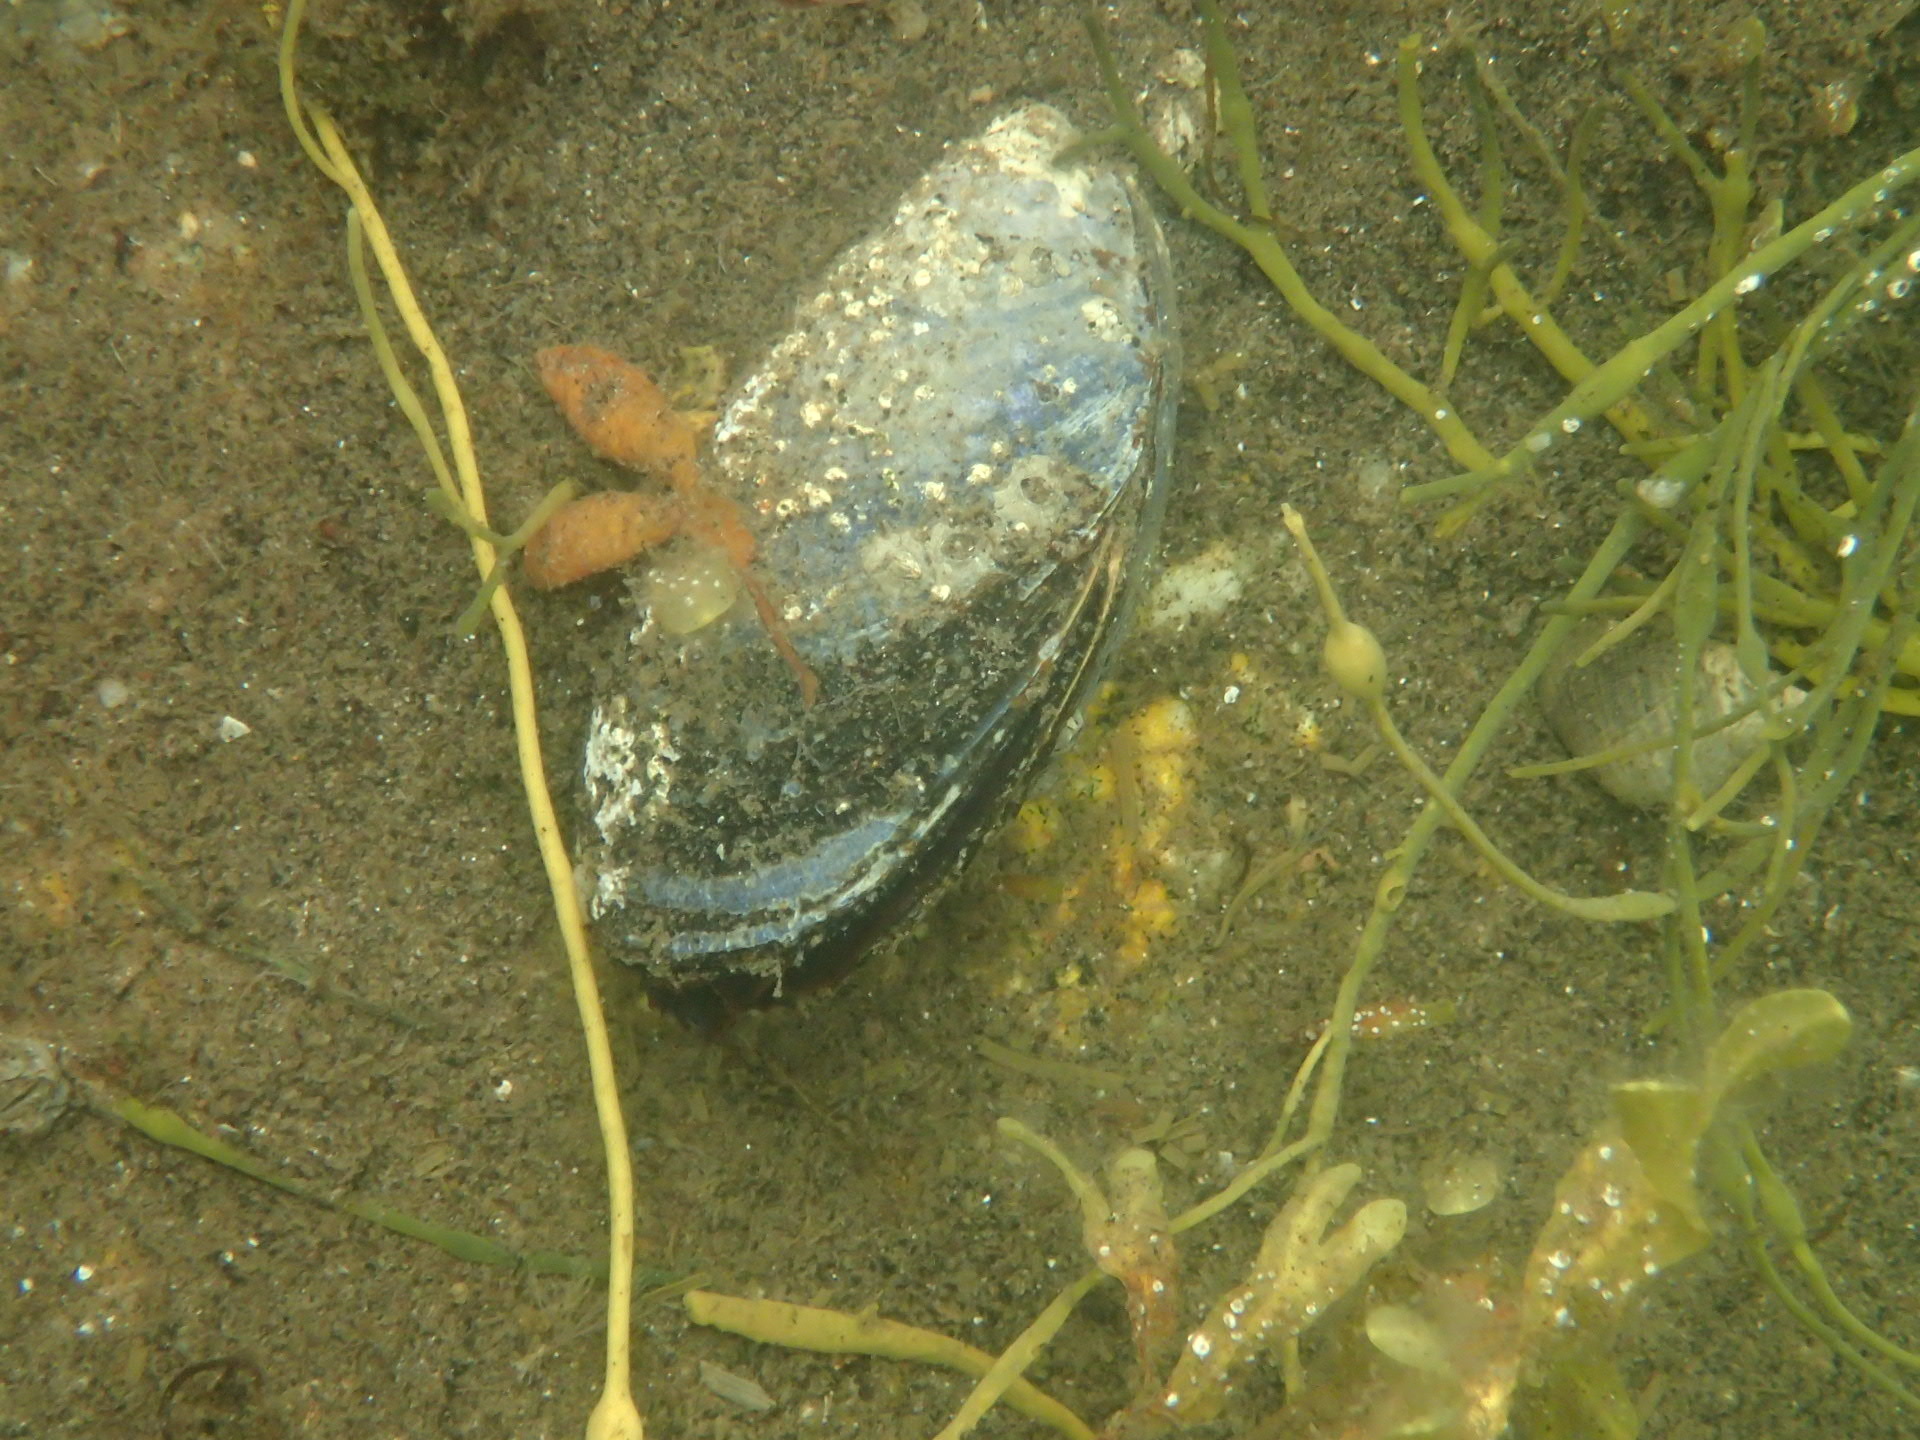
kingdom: Animalia
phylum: Mollusca
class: Bivalvia
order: Mytilida
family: Mytilidae
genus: Mytilus
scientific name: Mytilus edulis
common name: Blue mussel
